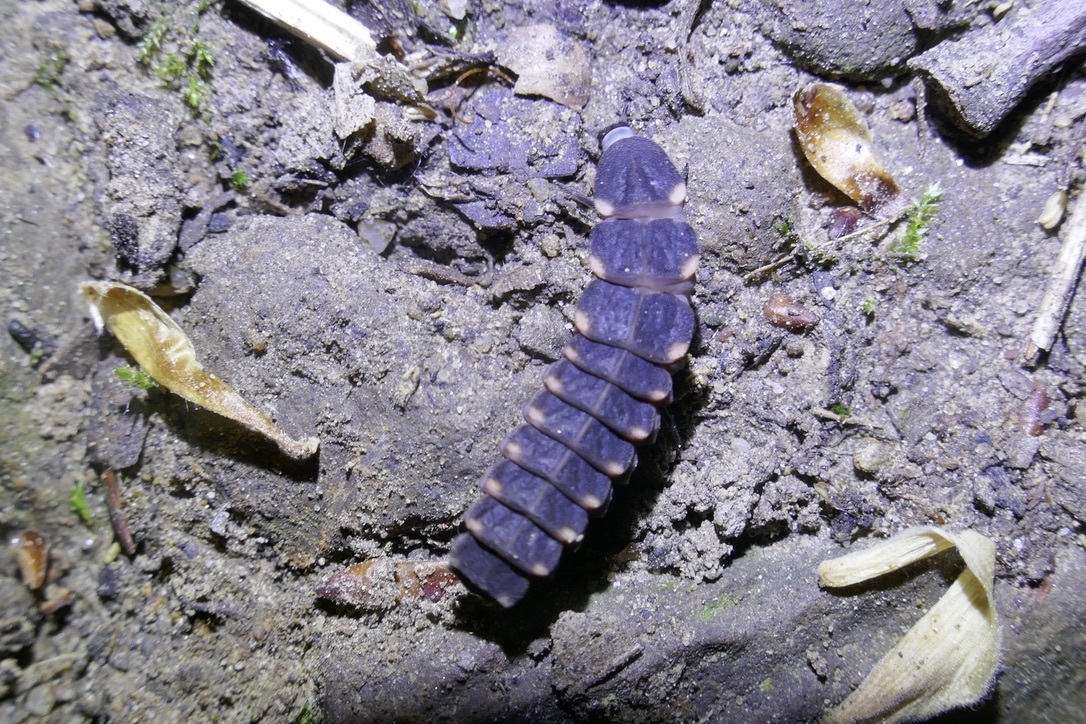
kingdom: Animalia
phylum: Arthropoda
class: Insecta
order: Coleoptera
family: Lampyridae
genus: Lampyris
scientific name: Lampyris noctiluca
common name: Glow-worm
